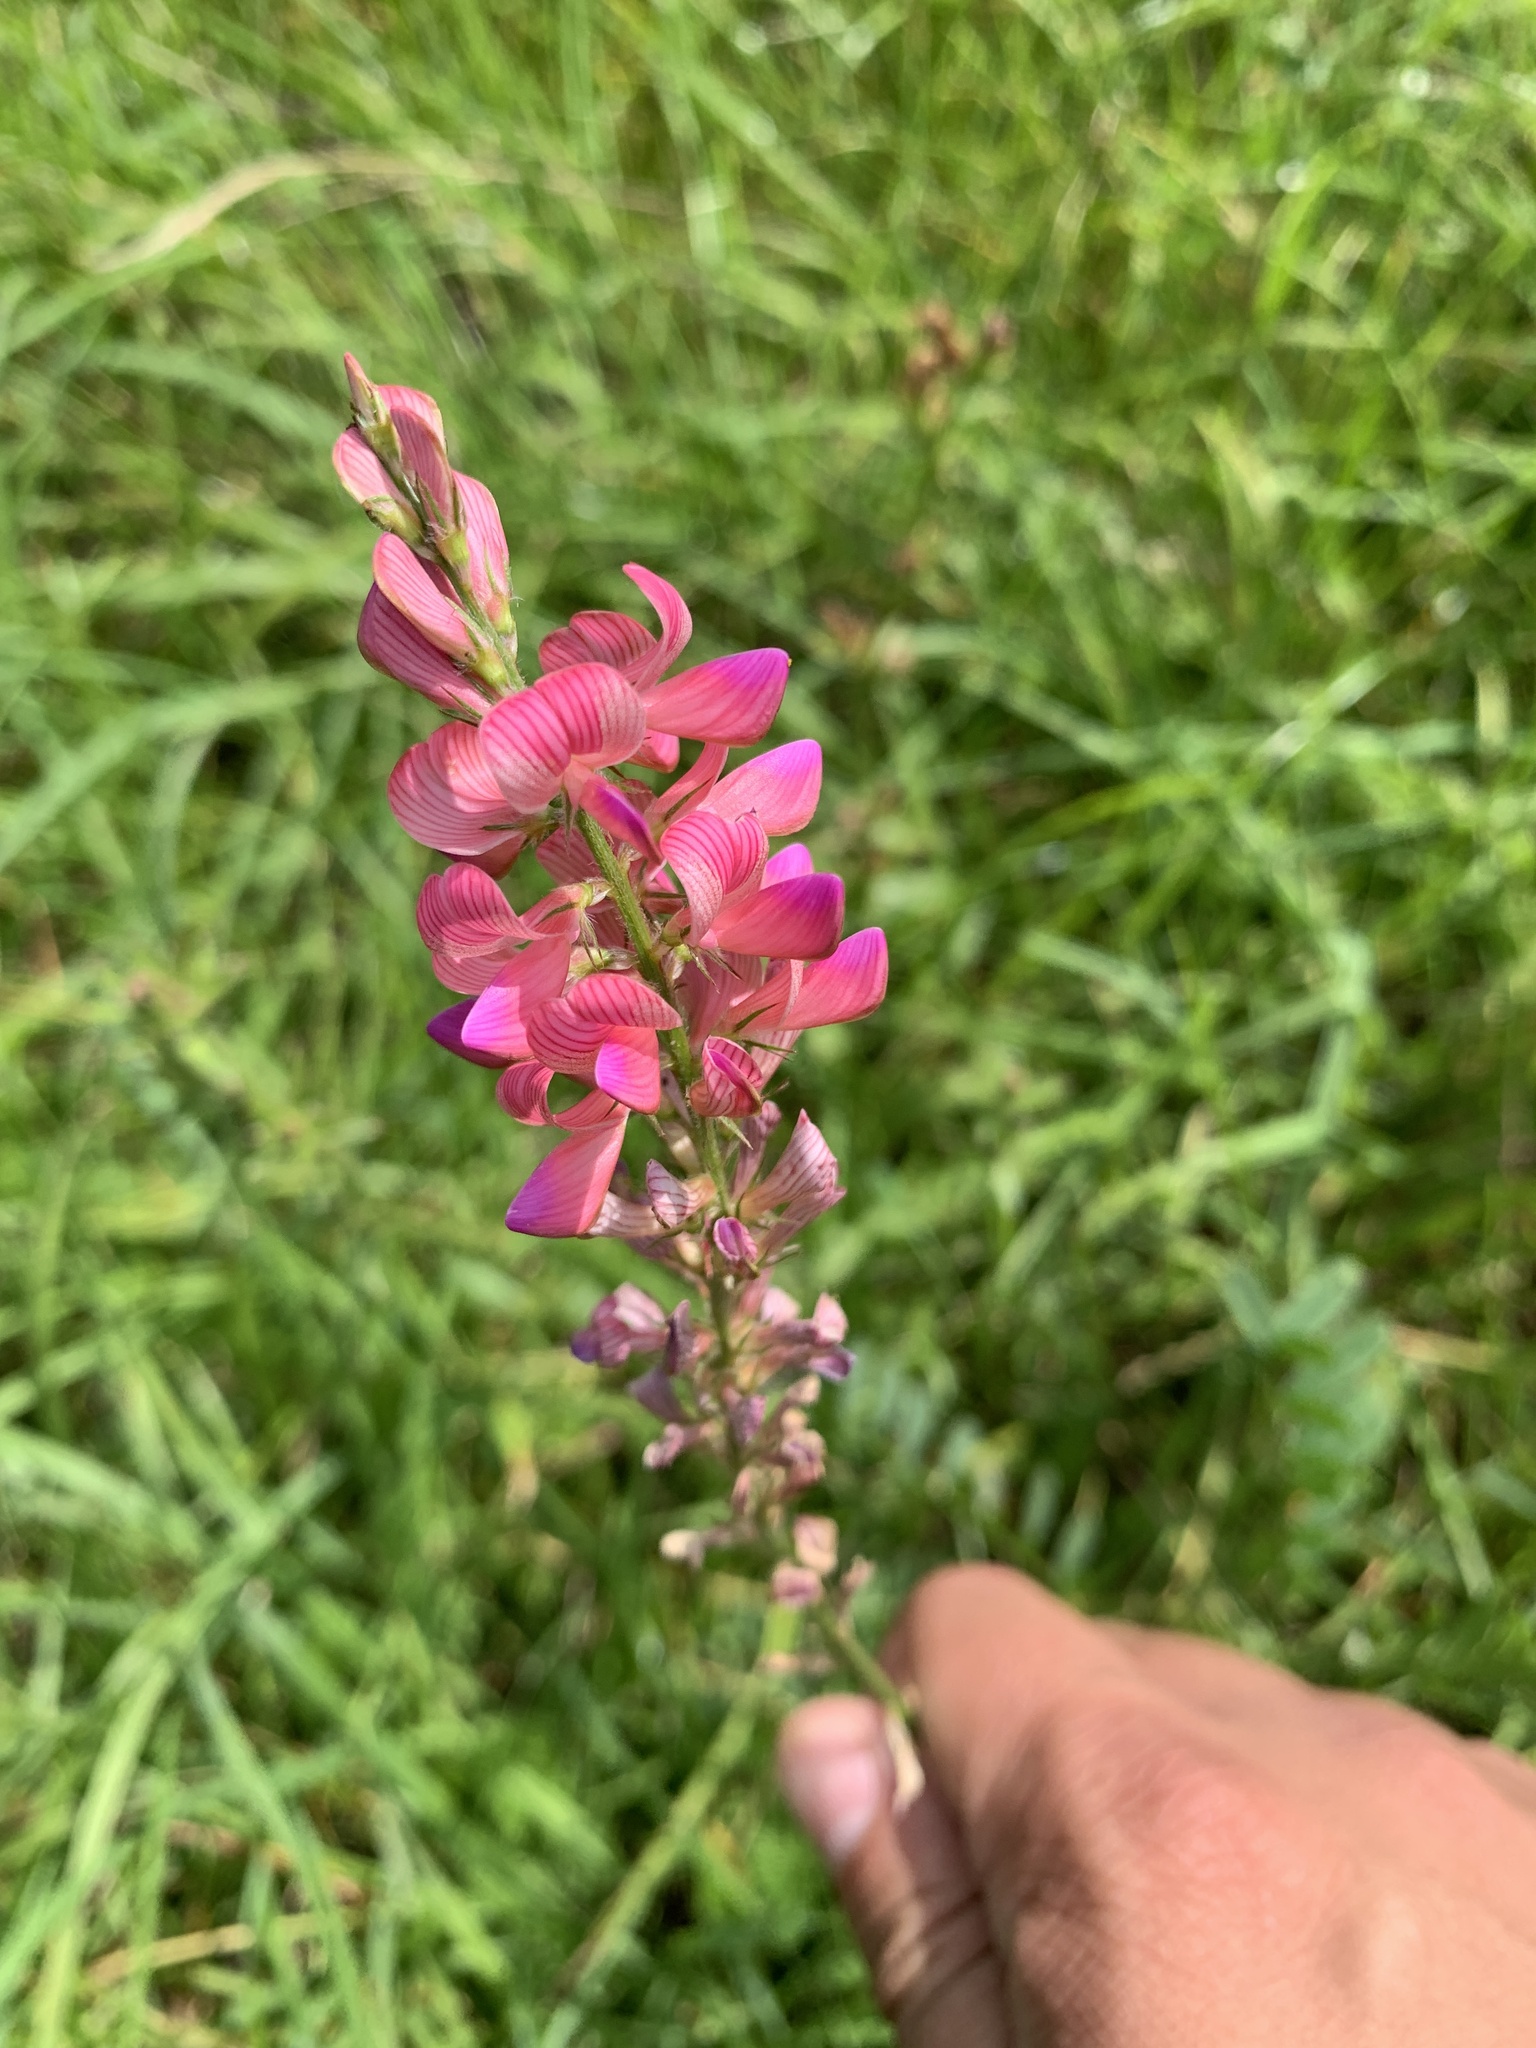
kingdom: Plantae
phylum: Tracheophyta
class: Magnoliopsida
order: Fabales
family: Fabaceae
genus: Onobrychis
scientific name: Onobrychis viciifolia
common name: Sainfoin
